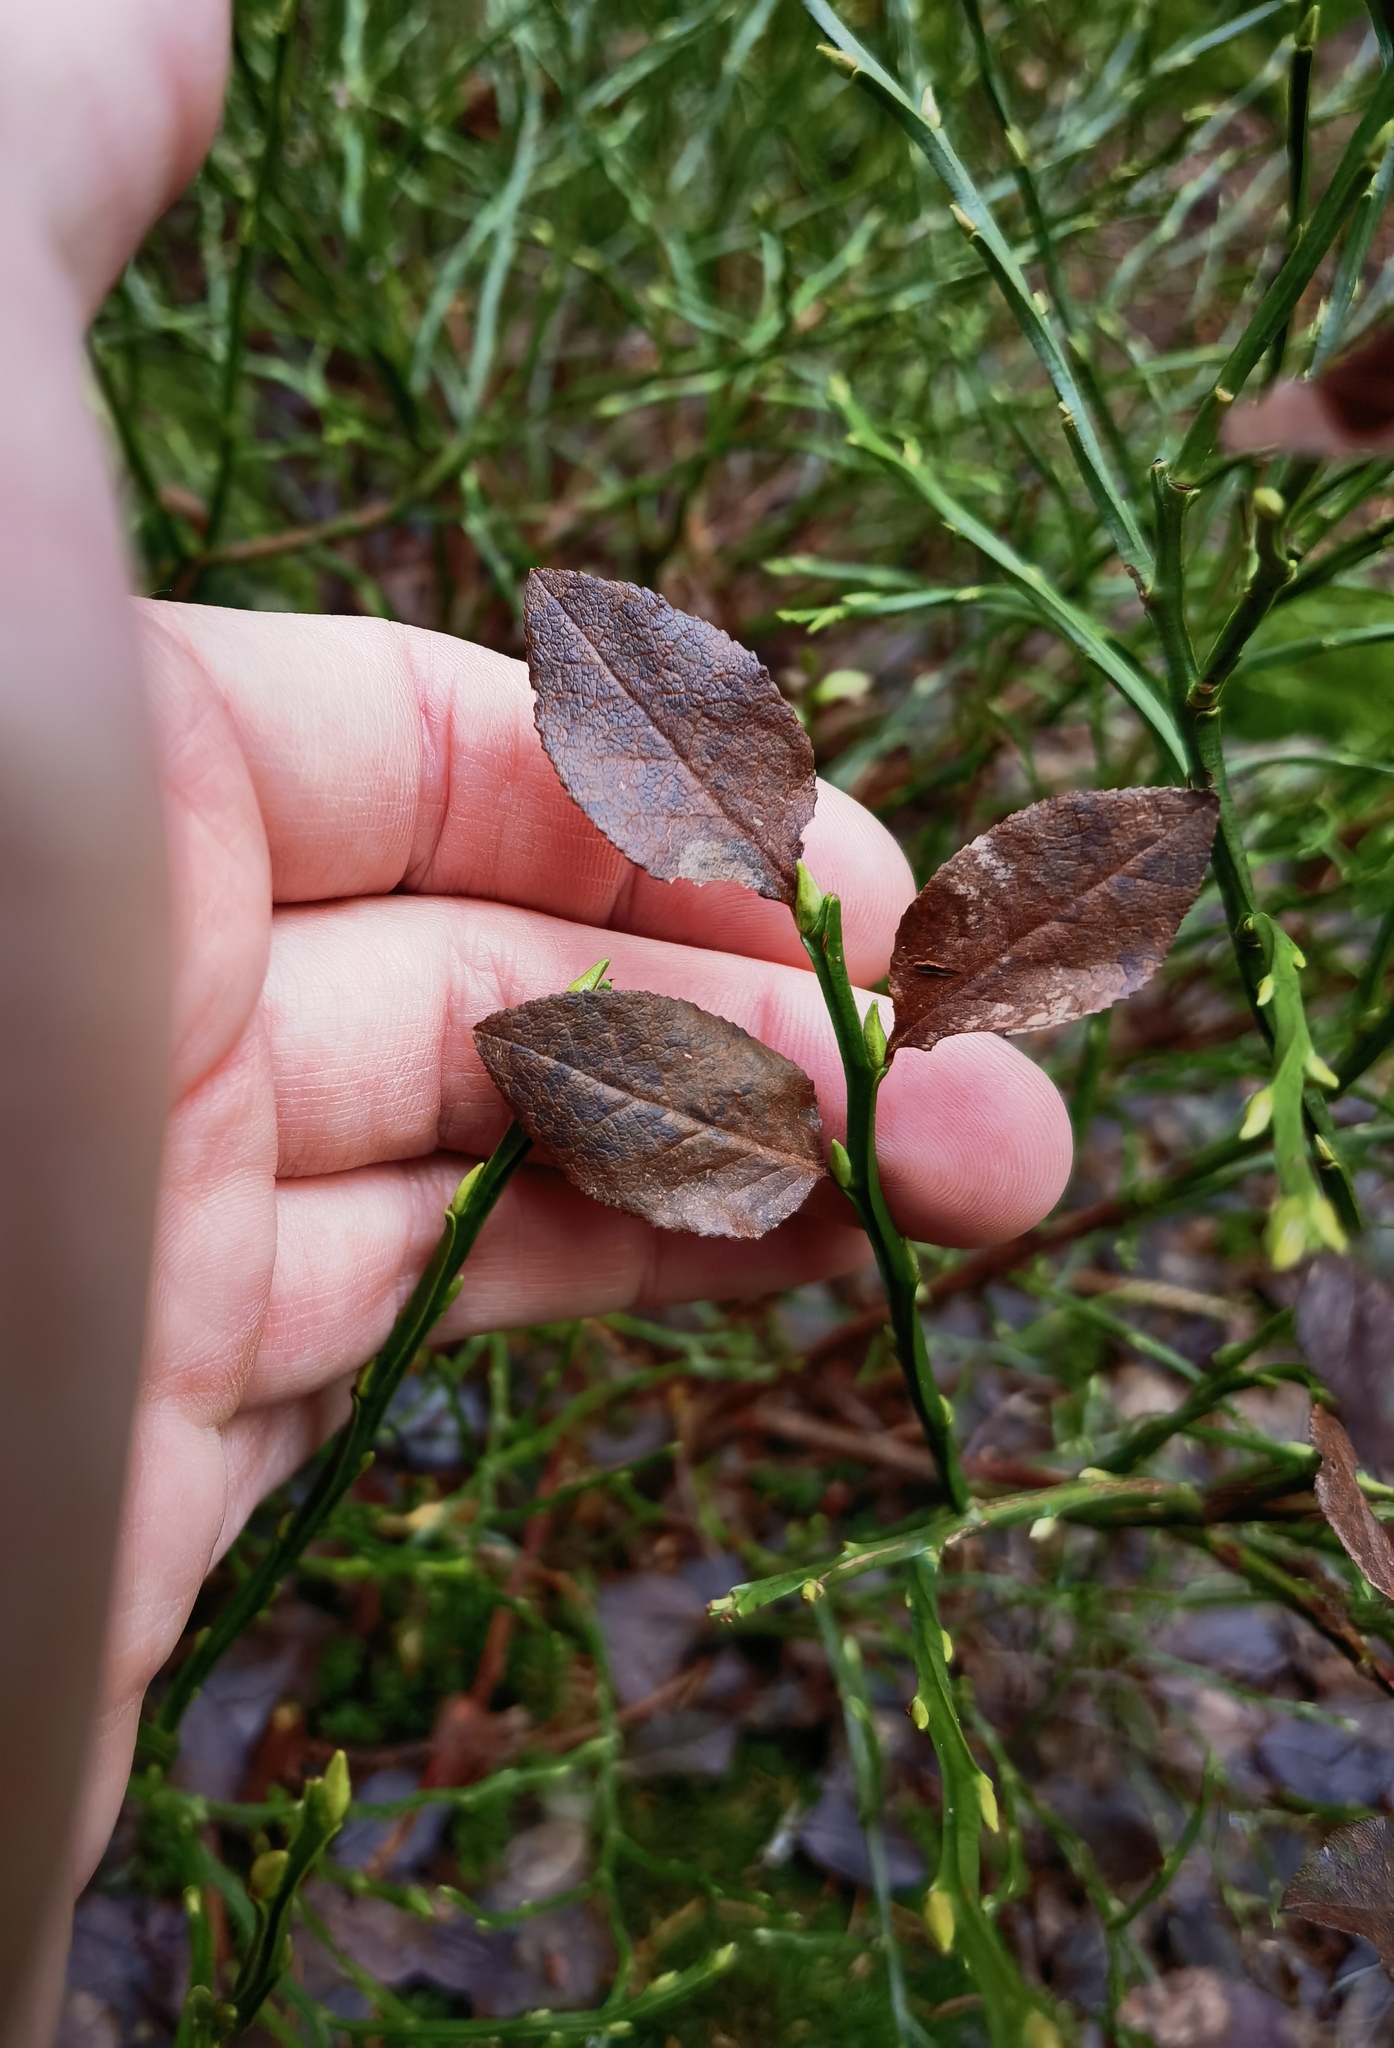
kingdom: Plantae
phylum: Tracheophyta
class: Magnoliopsida
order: Ericales
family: Ericaceae
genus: Vaccinium
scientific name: Vaccinium myrtillus
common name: Bilberry
